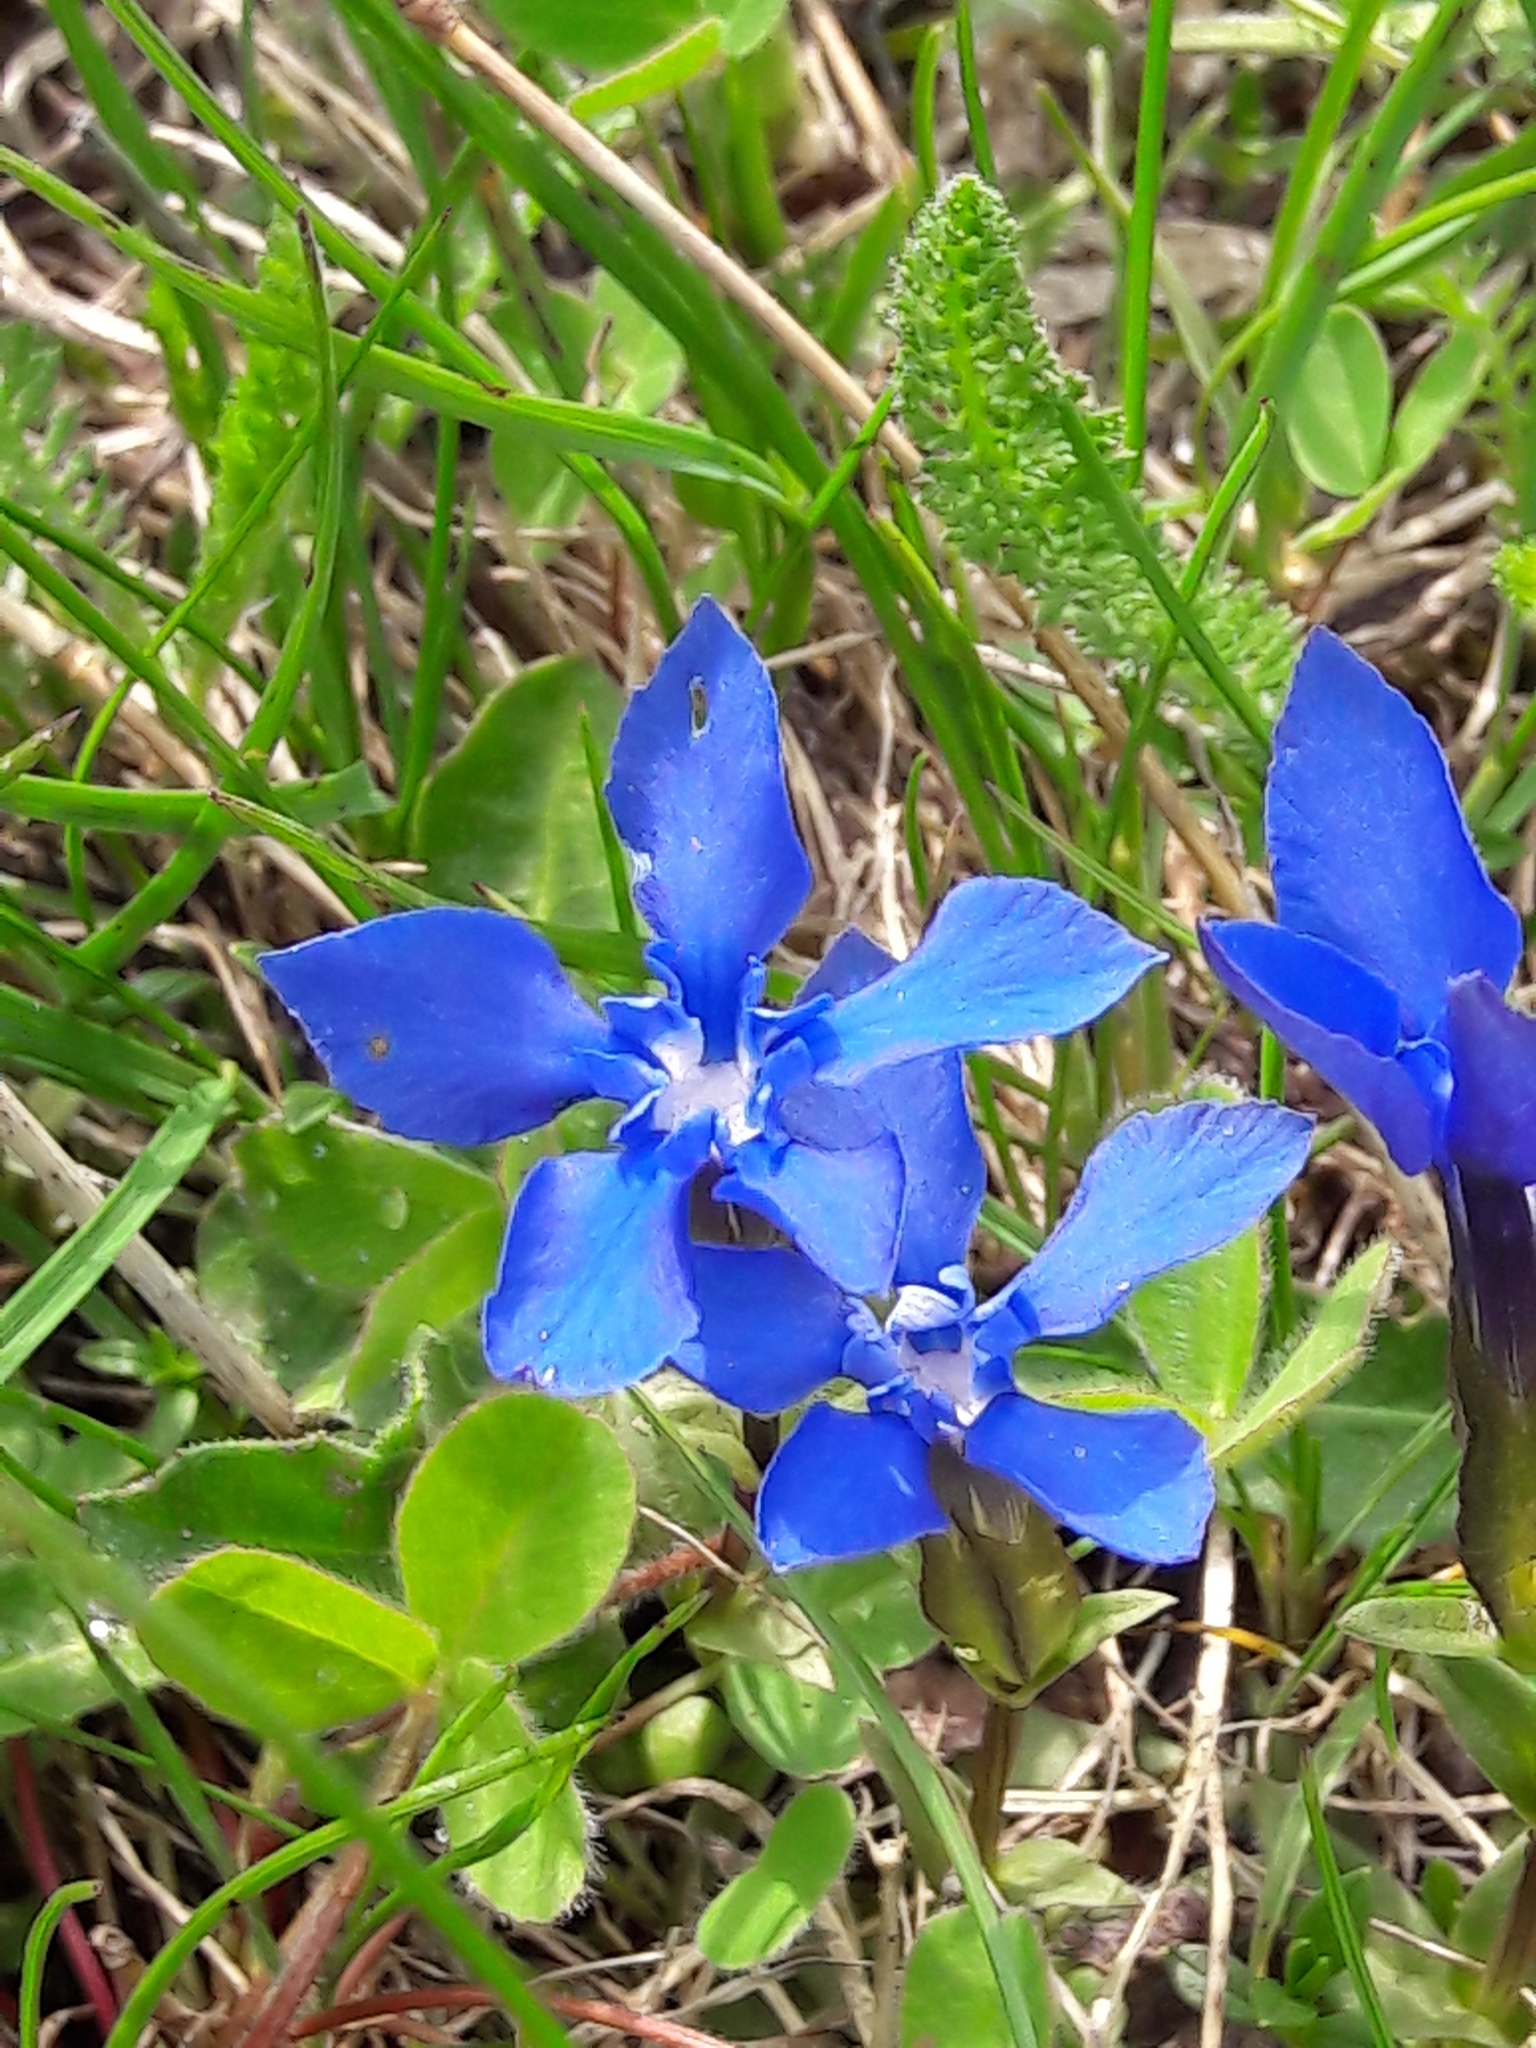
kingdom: Plantae
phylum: Tracheophyta
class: Magnoliopsida
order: Gentianales
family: Gentianaceae
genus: Gentiana
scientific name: Gentiana verna
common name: Spring gentian
